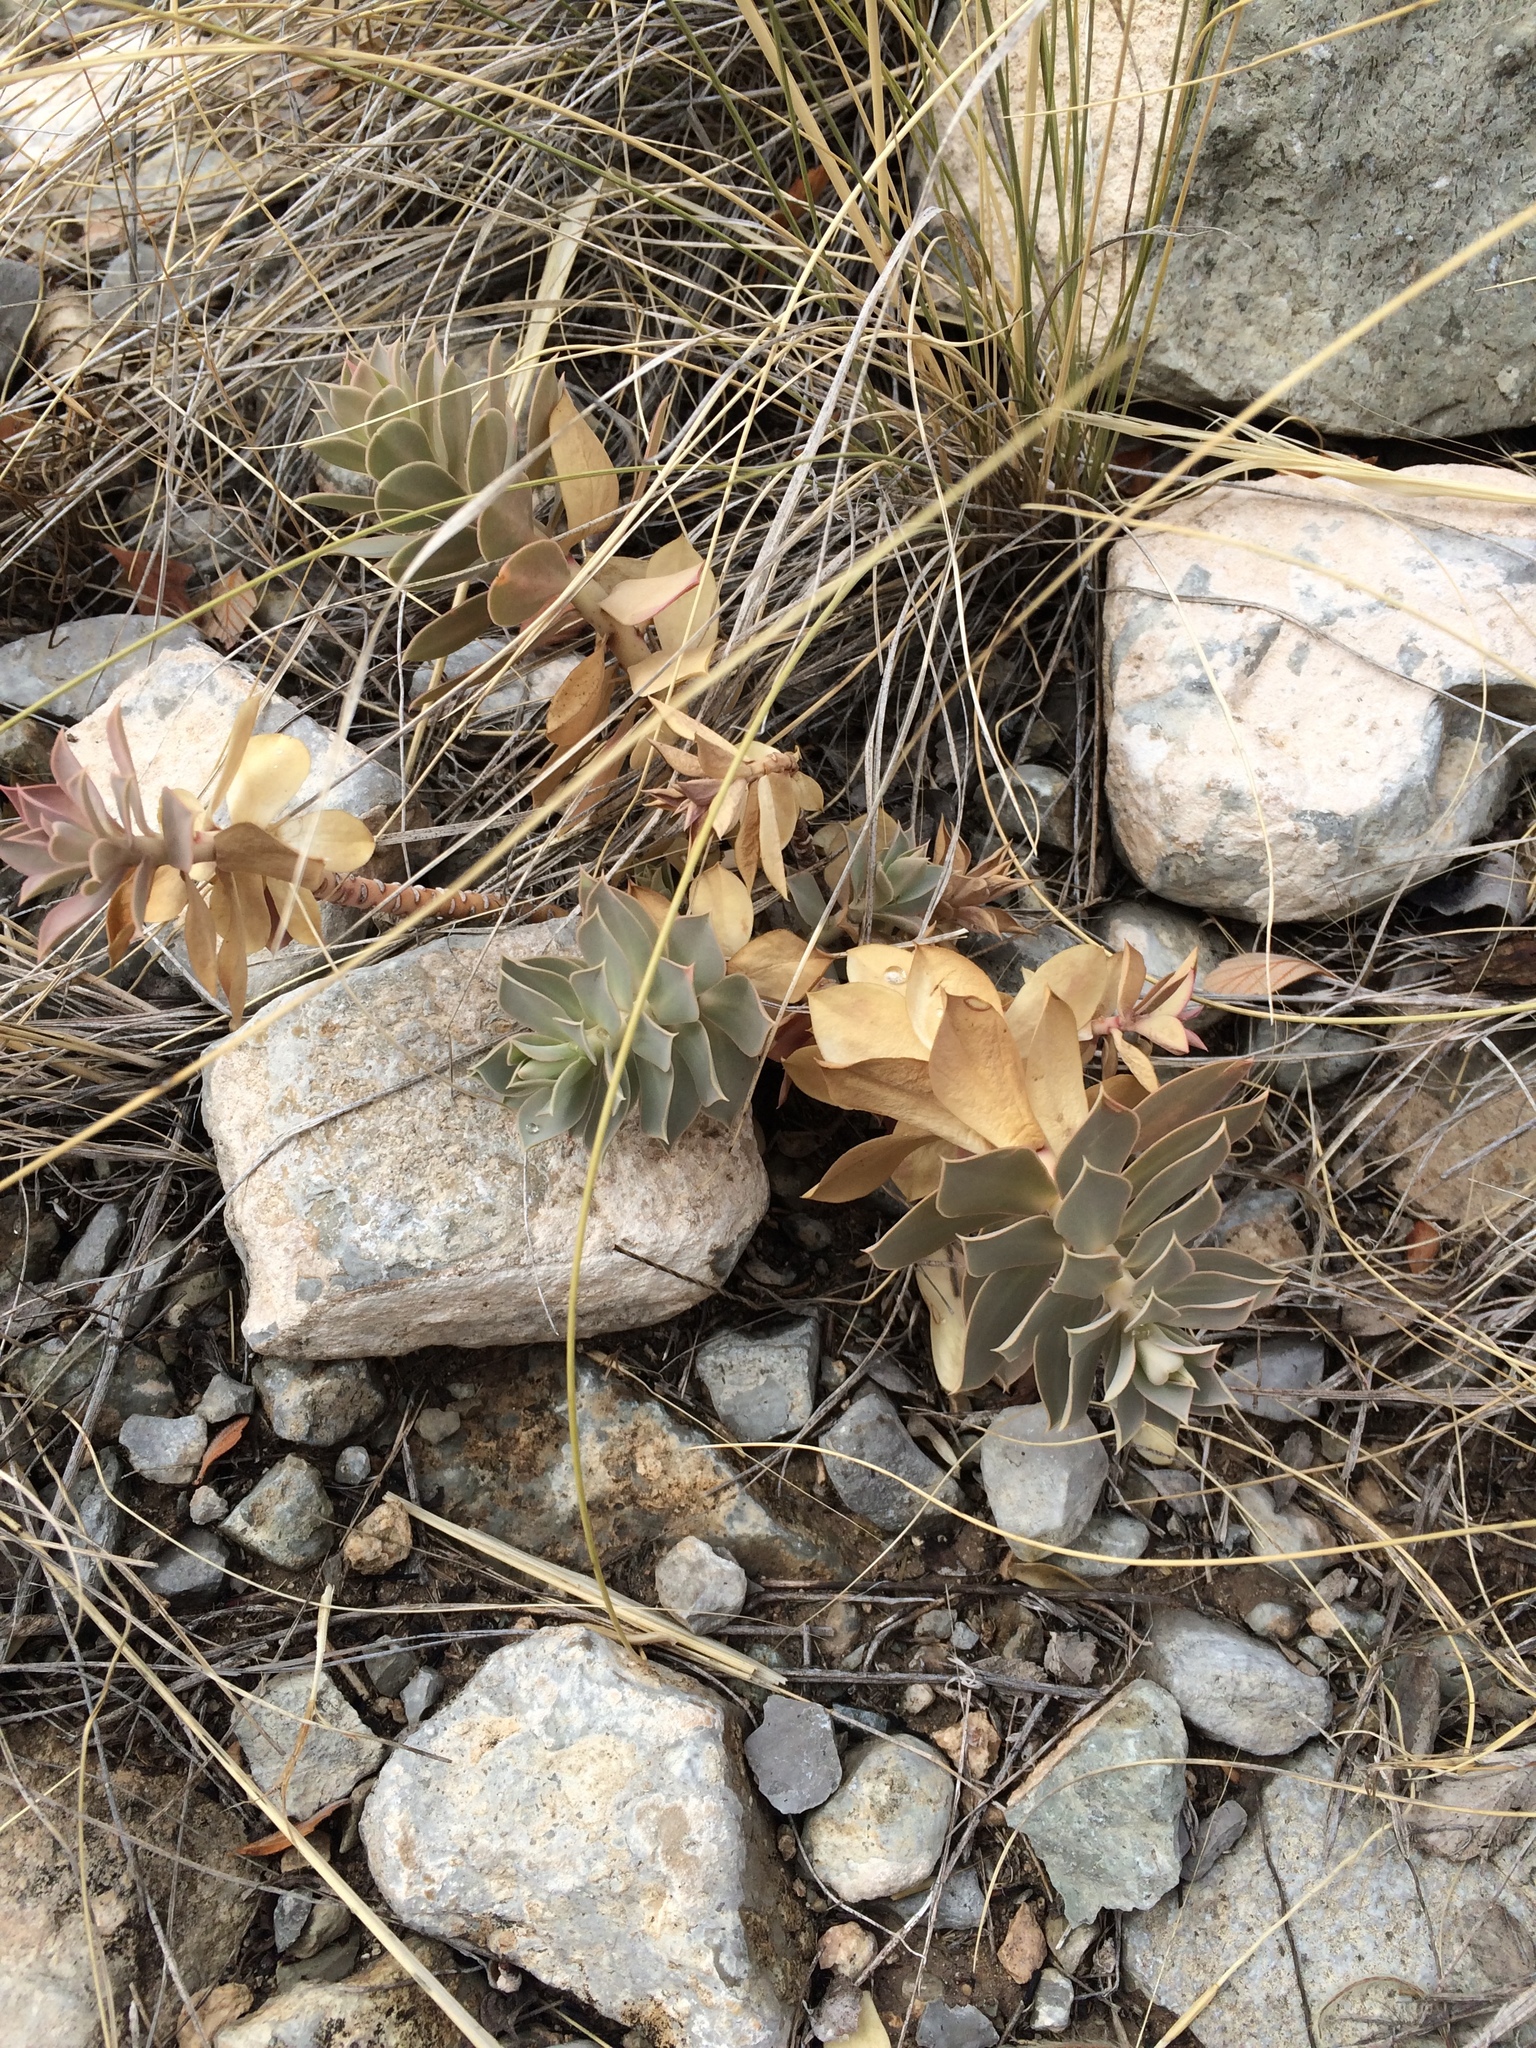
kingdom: Plantae
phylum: Tracheophyta
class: Magnoliopsida
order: Malpighiales
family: Euphorbiaceae
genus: Euphorbia
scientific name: Euphorbia myrsinites
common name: Myrtle spurge
